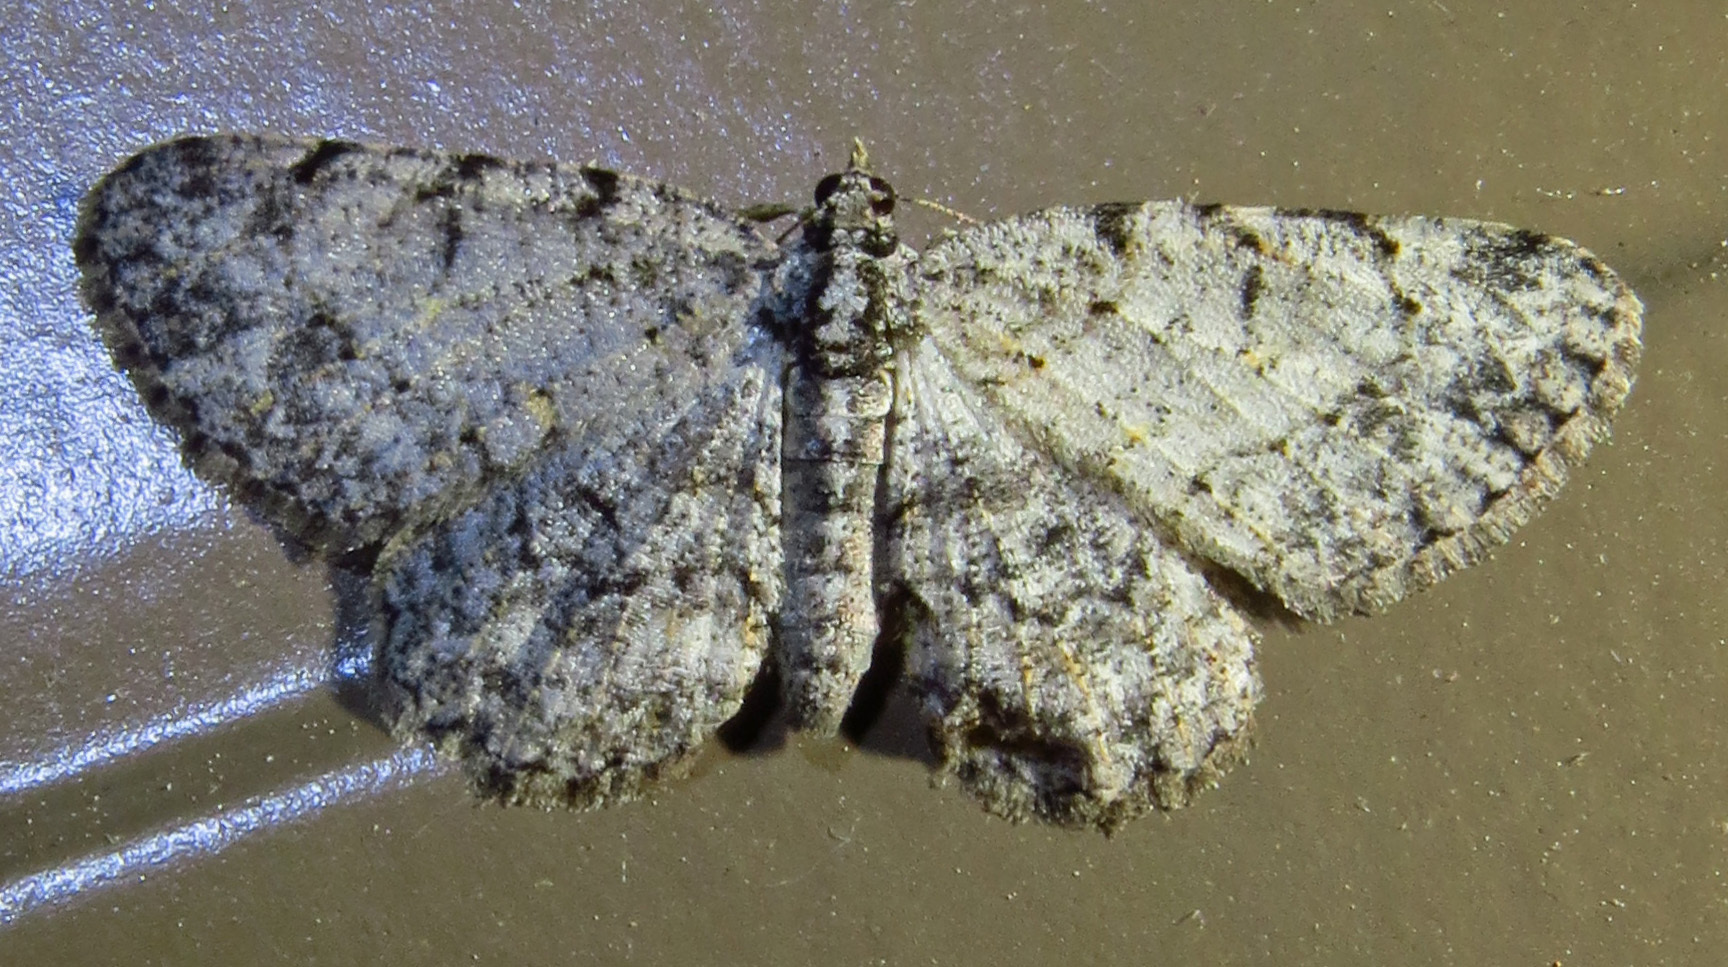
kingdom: Animalia
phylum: Arthropoda
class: Insecta
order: Lepidoptera
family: Geometridae
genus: Protoboarmia
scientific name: Protoboarmia porcelaria
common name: Porcelain gray
